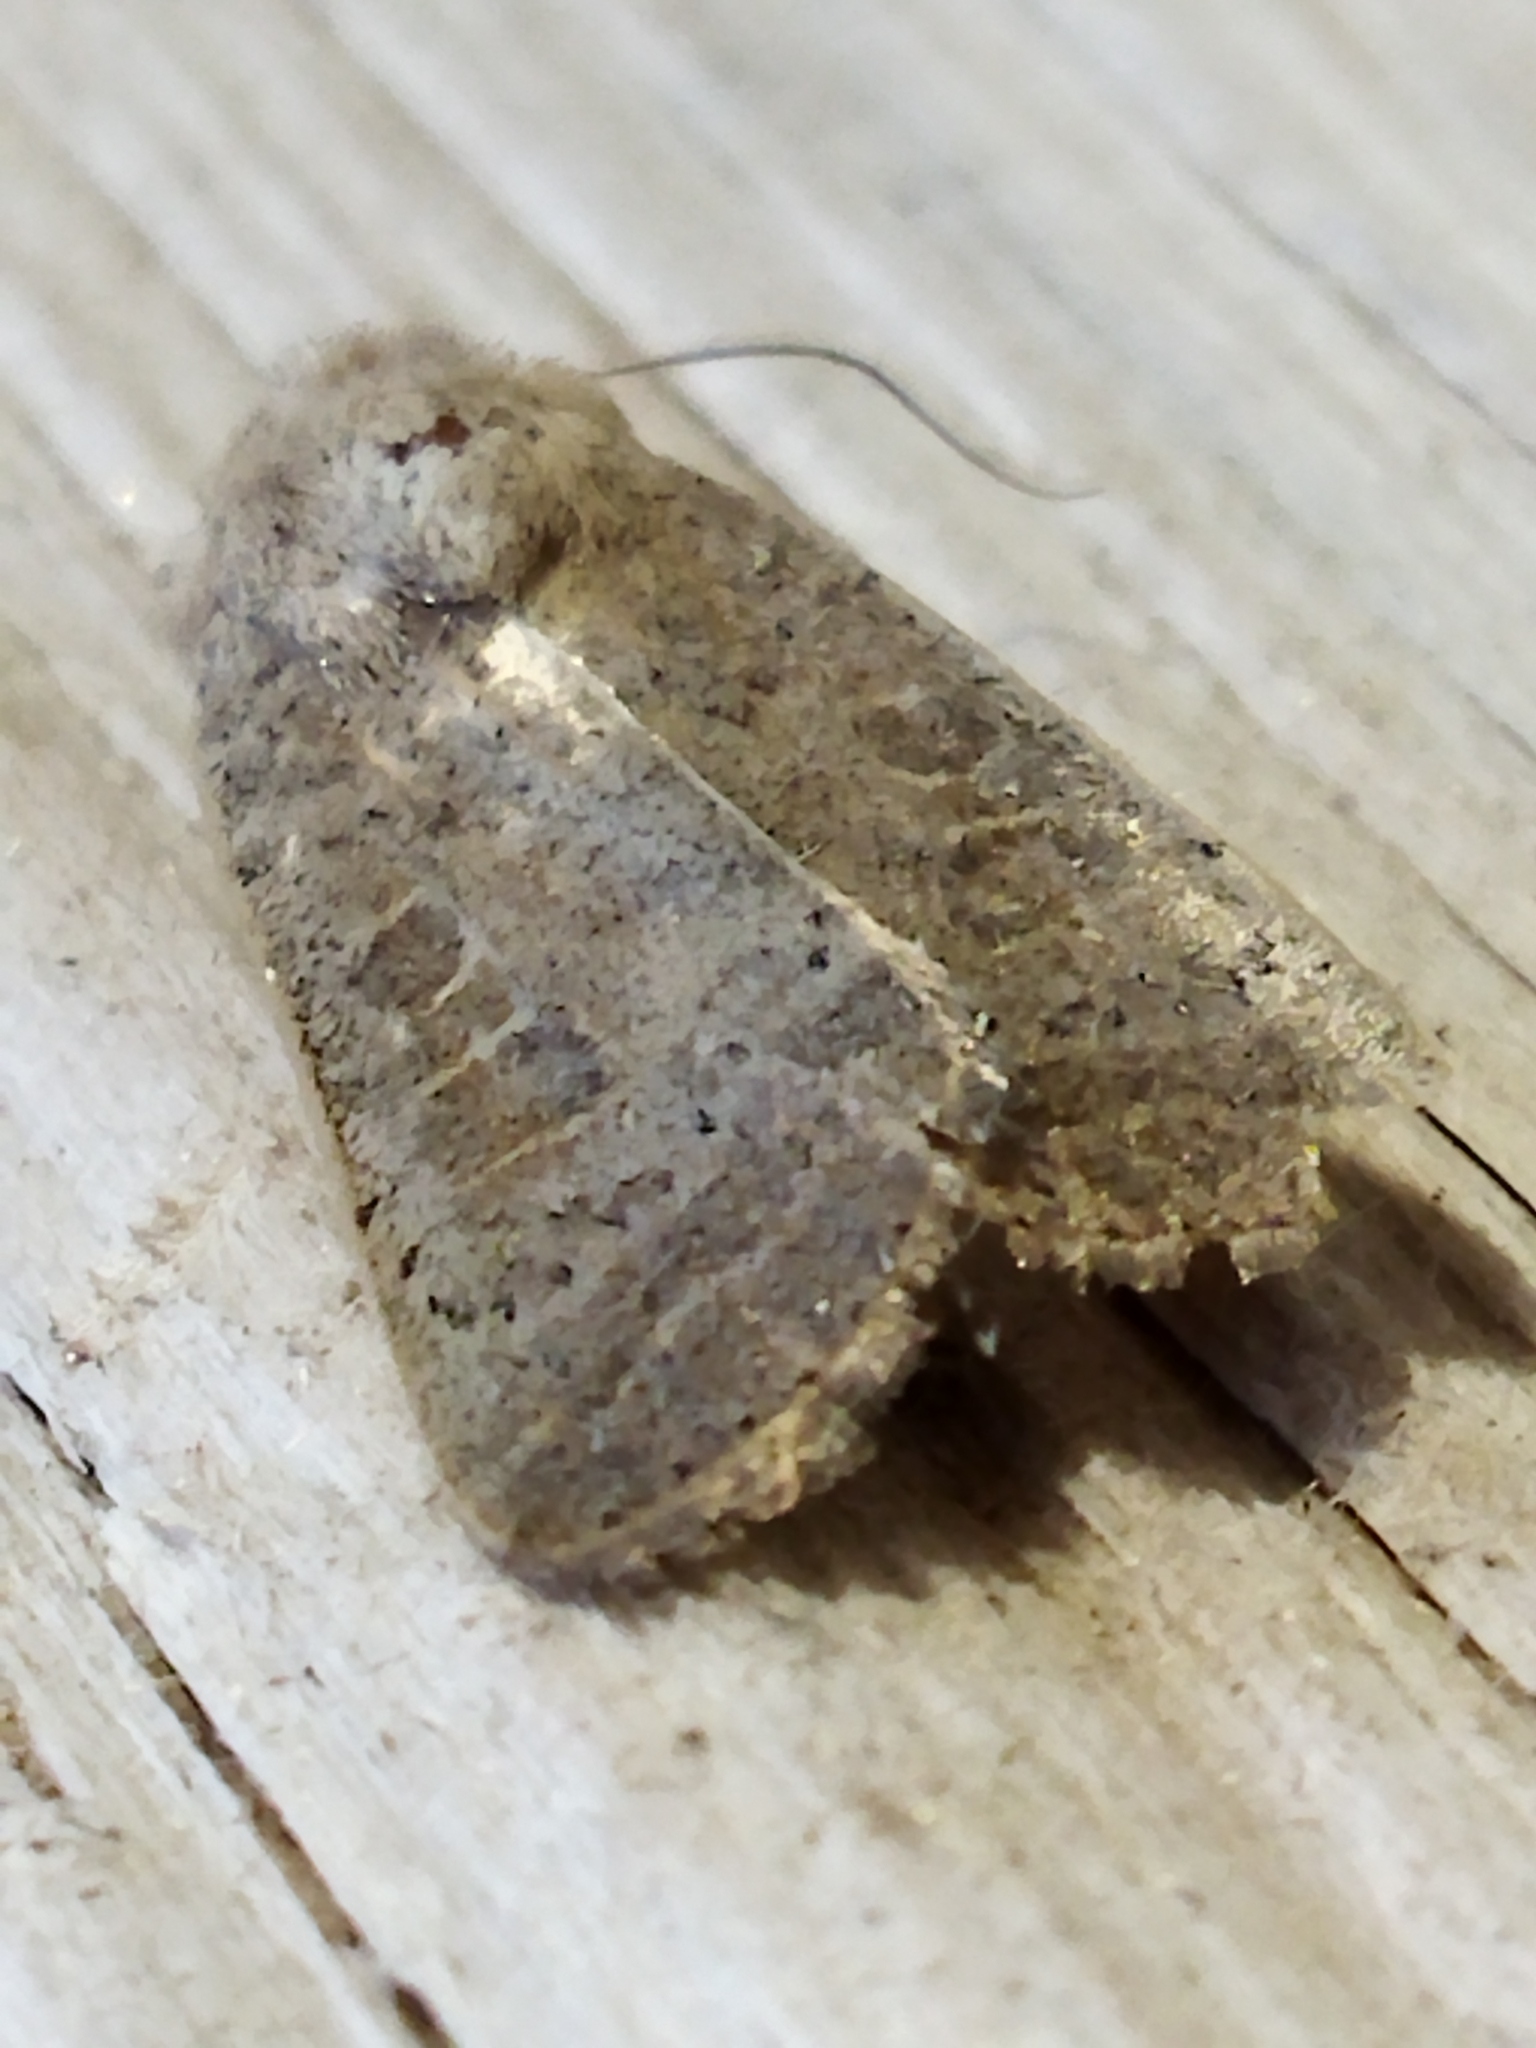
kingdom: Animalia
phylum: Arthropoda
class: Insecta
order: Lepidoptera
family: Noctuidae
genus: Hoplodrina
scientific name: Hoplodrina ambigua
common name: Vine's rustic
